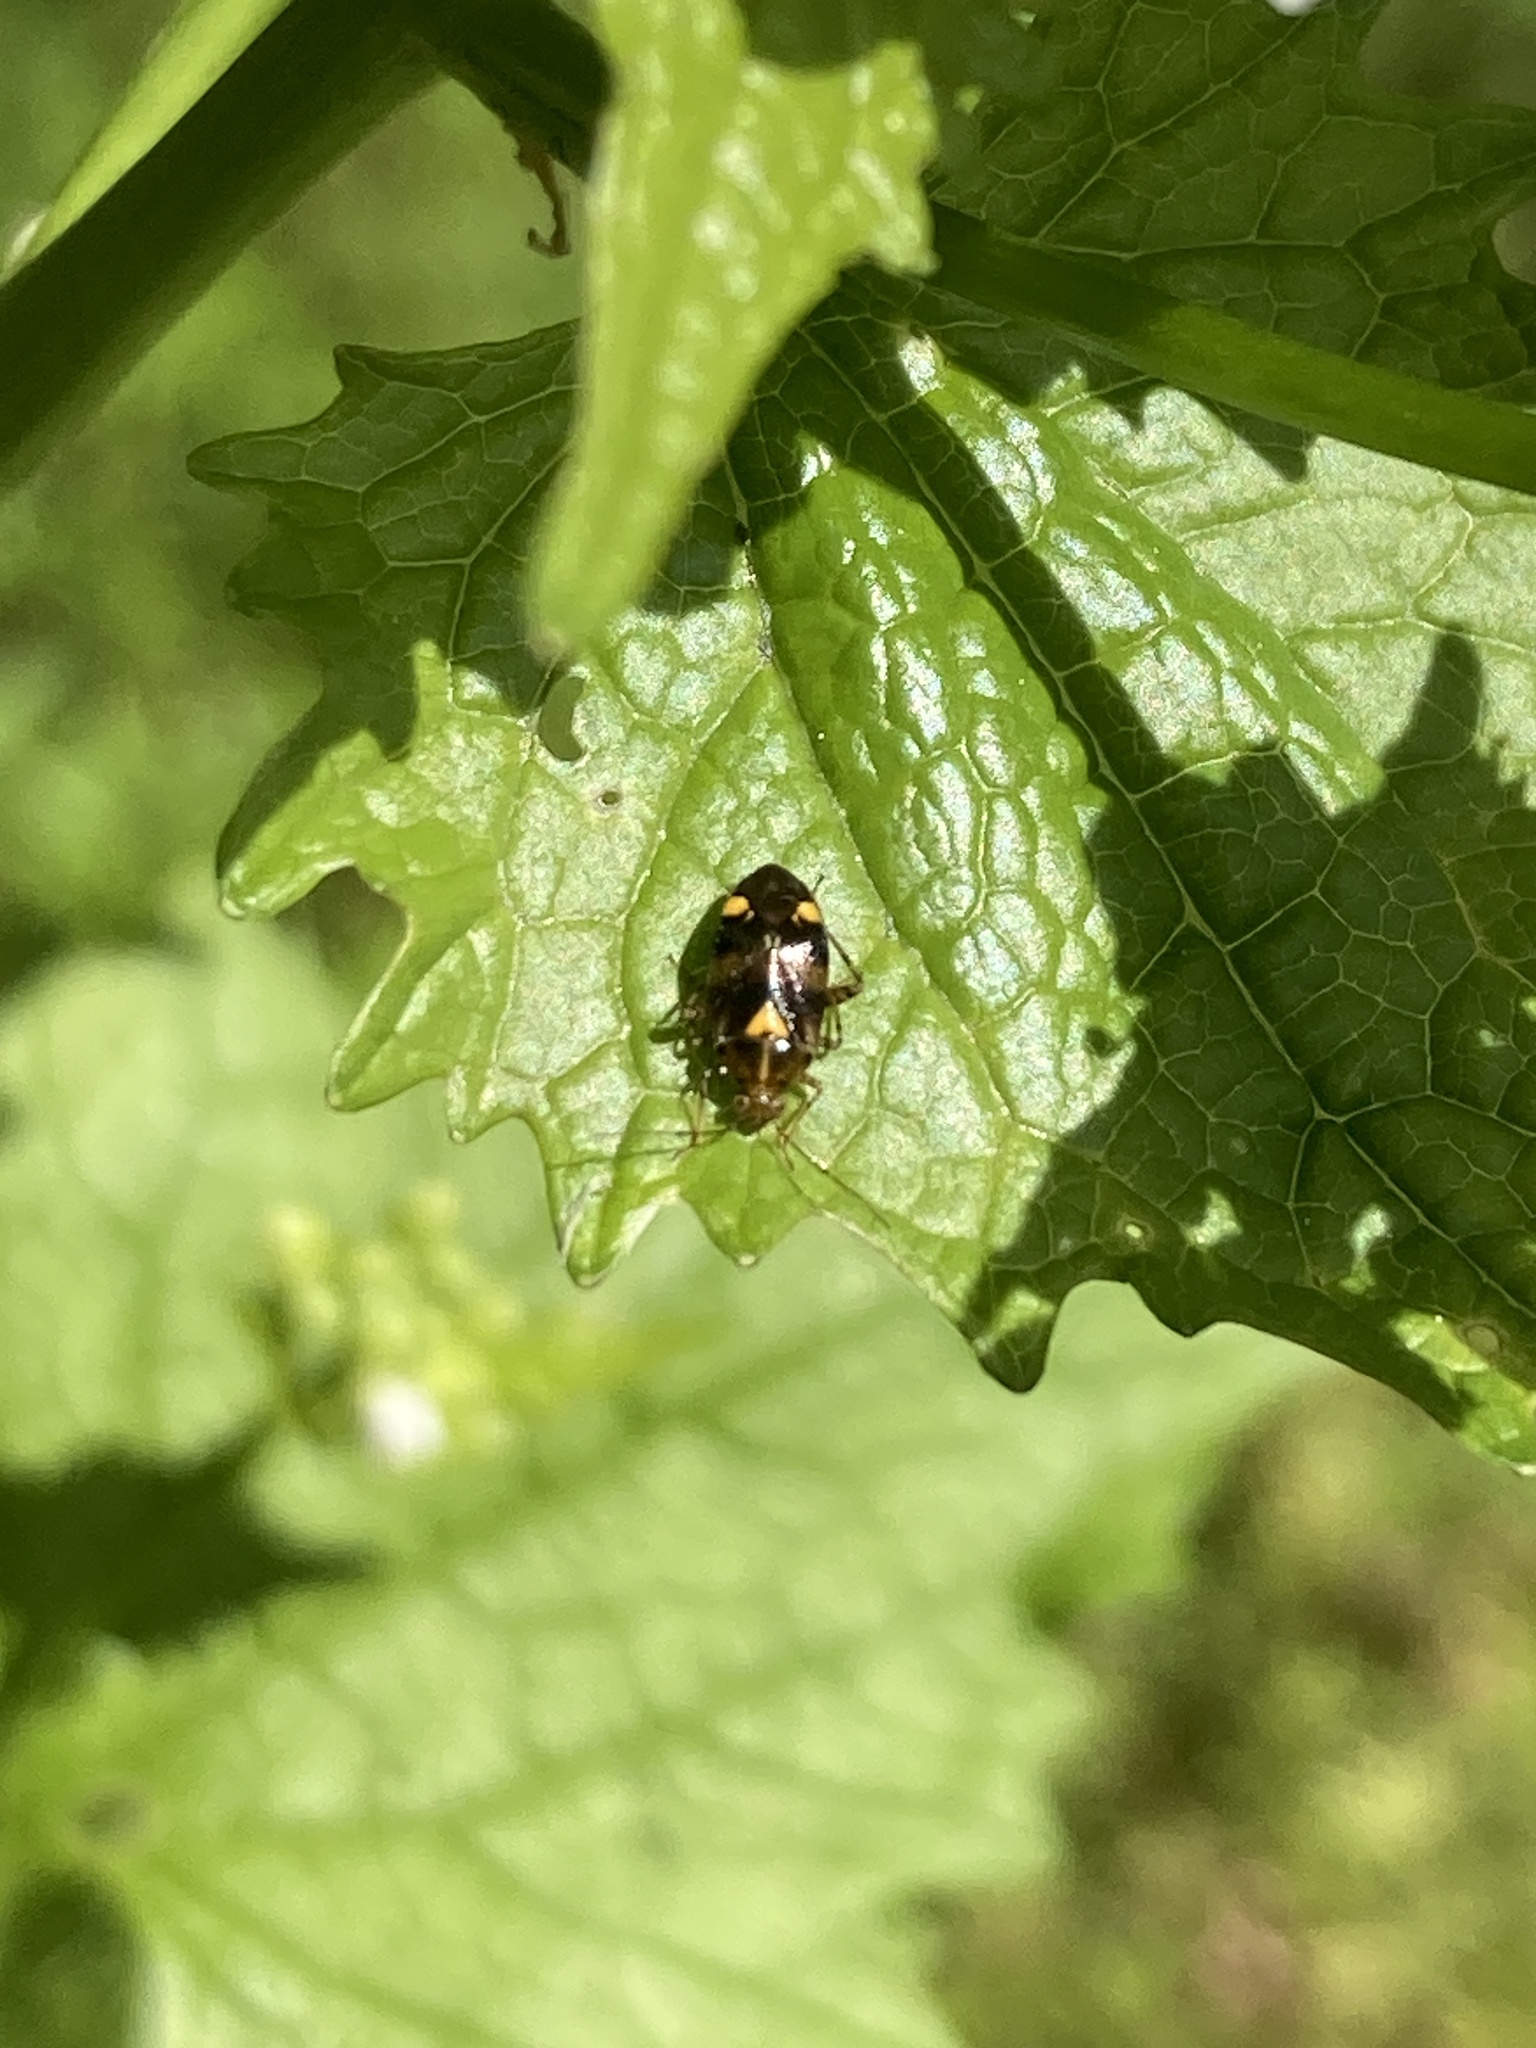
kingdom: Animalia
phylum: Arthropoda
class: Insecta
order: Hemiptera
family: Miridae
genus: Liocoris
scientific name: Liocoris tripustulatus
